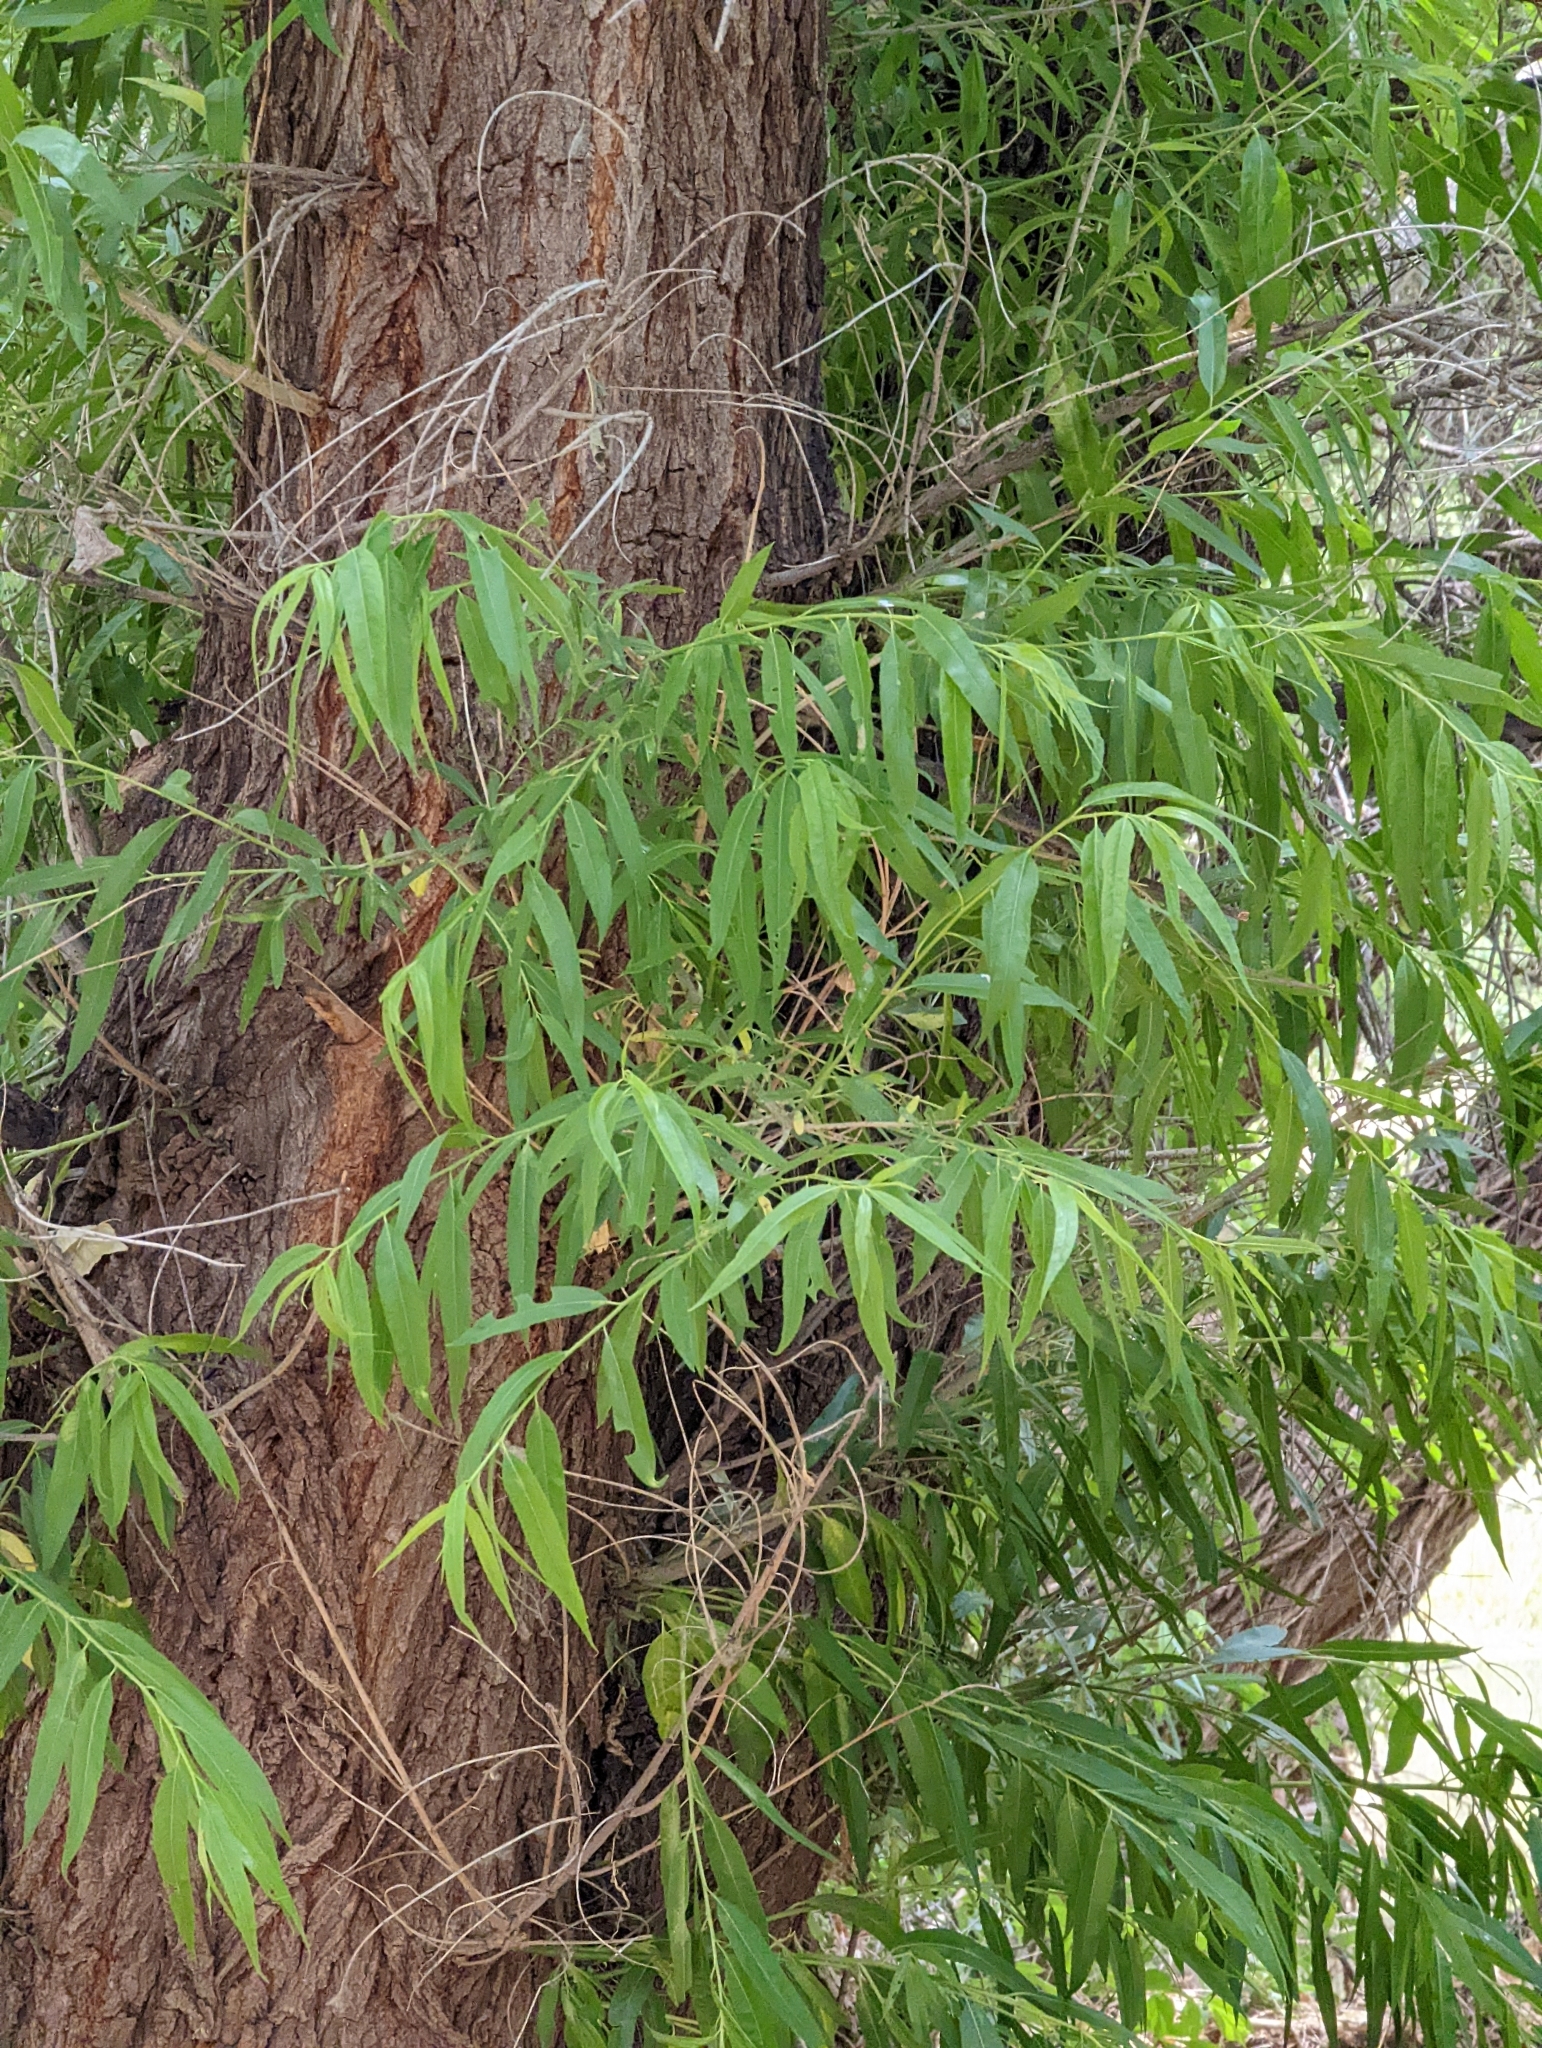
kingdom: Plantae
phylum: Tracheophyta
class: Magnoliopsida
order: Malpighiales
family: Salicaceae
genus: Salix
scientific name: Salix gooddingii
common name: Goodding's willow
